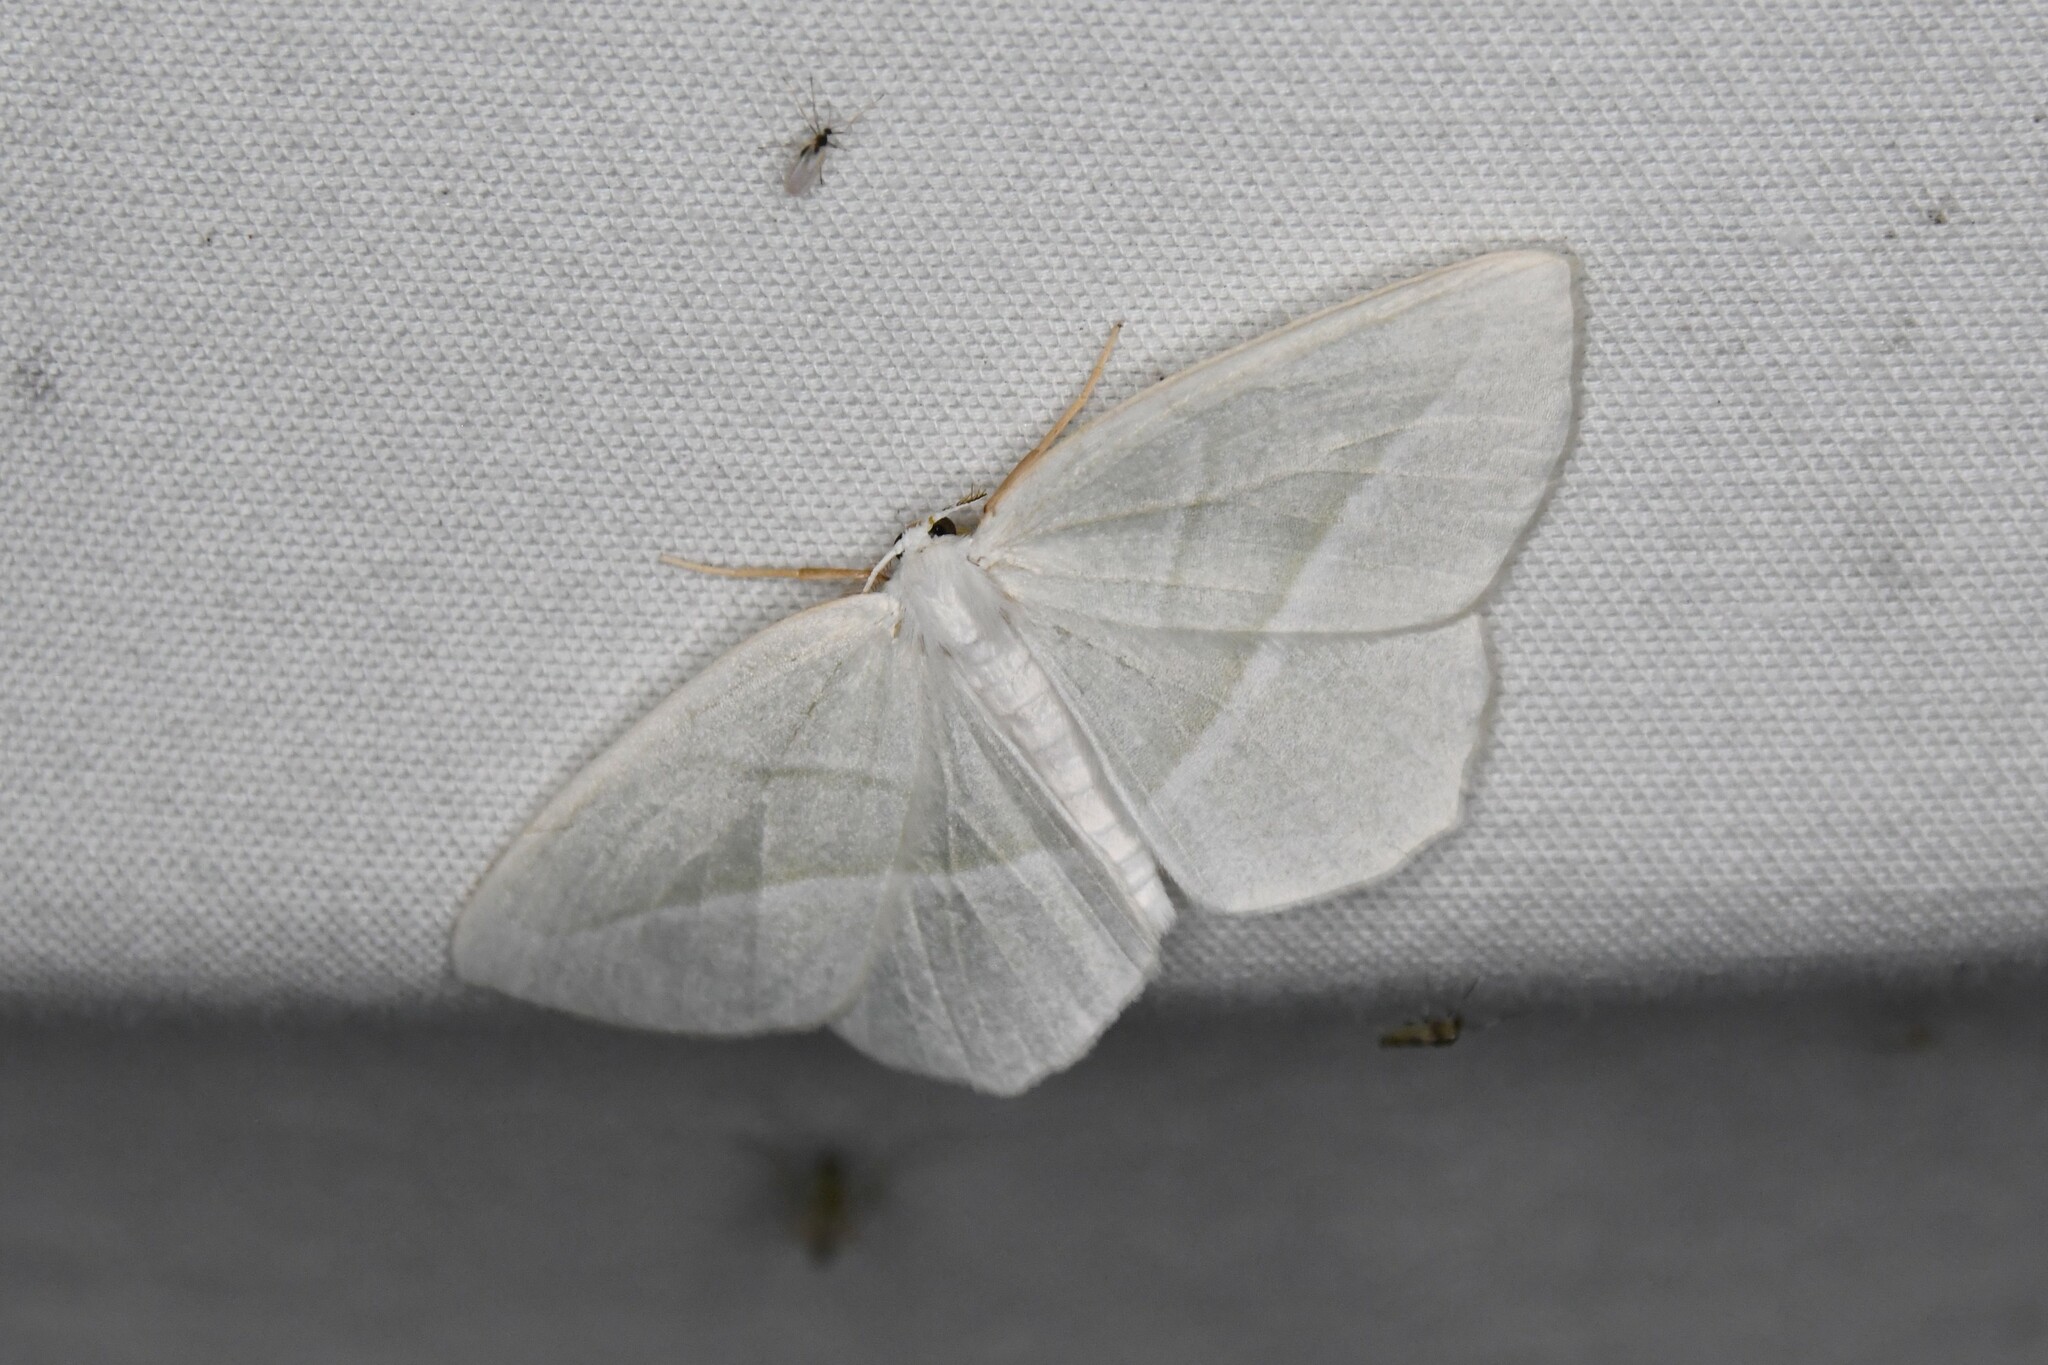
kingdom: Animalia
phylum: Arthropoda
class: Insecta
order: Lepidoptera
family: Geometridae
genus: Campaea
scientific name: Campaea perlata
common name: Fringed looper
